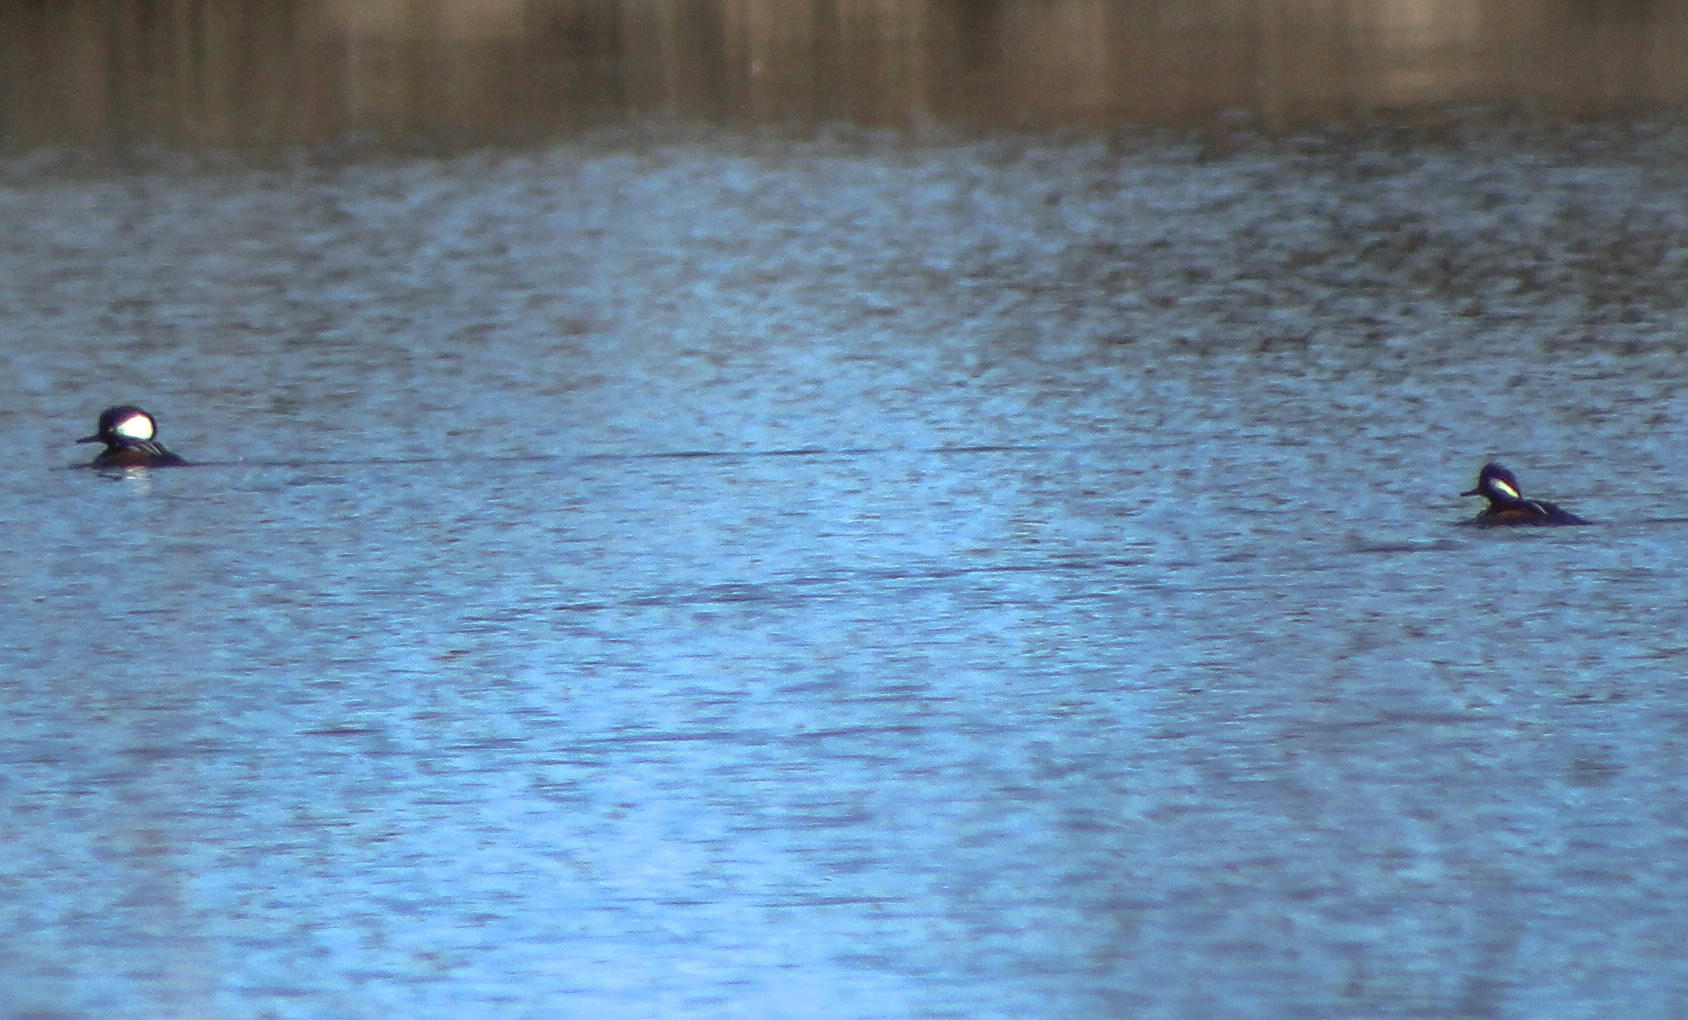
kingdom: Animalia
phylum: Chordata
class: Aves
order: Anseriformes
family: Anatidae
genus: Lophodytes
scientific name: Lophodytes cucullatus
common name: Hooded merganser
